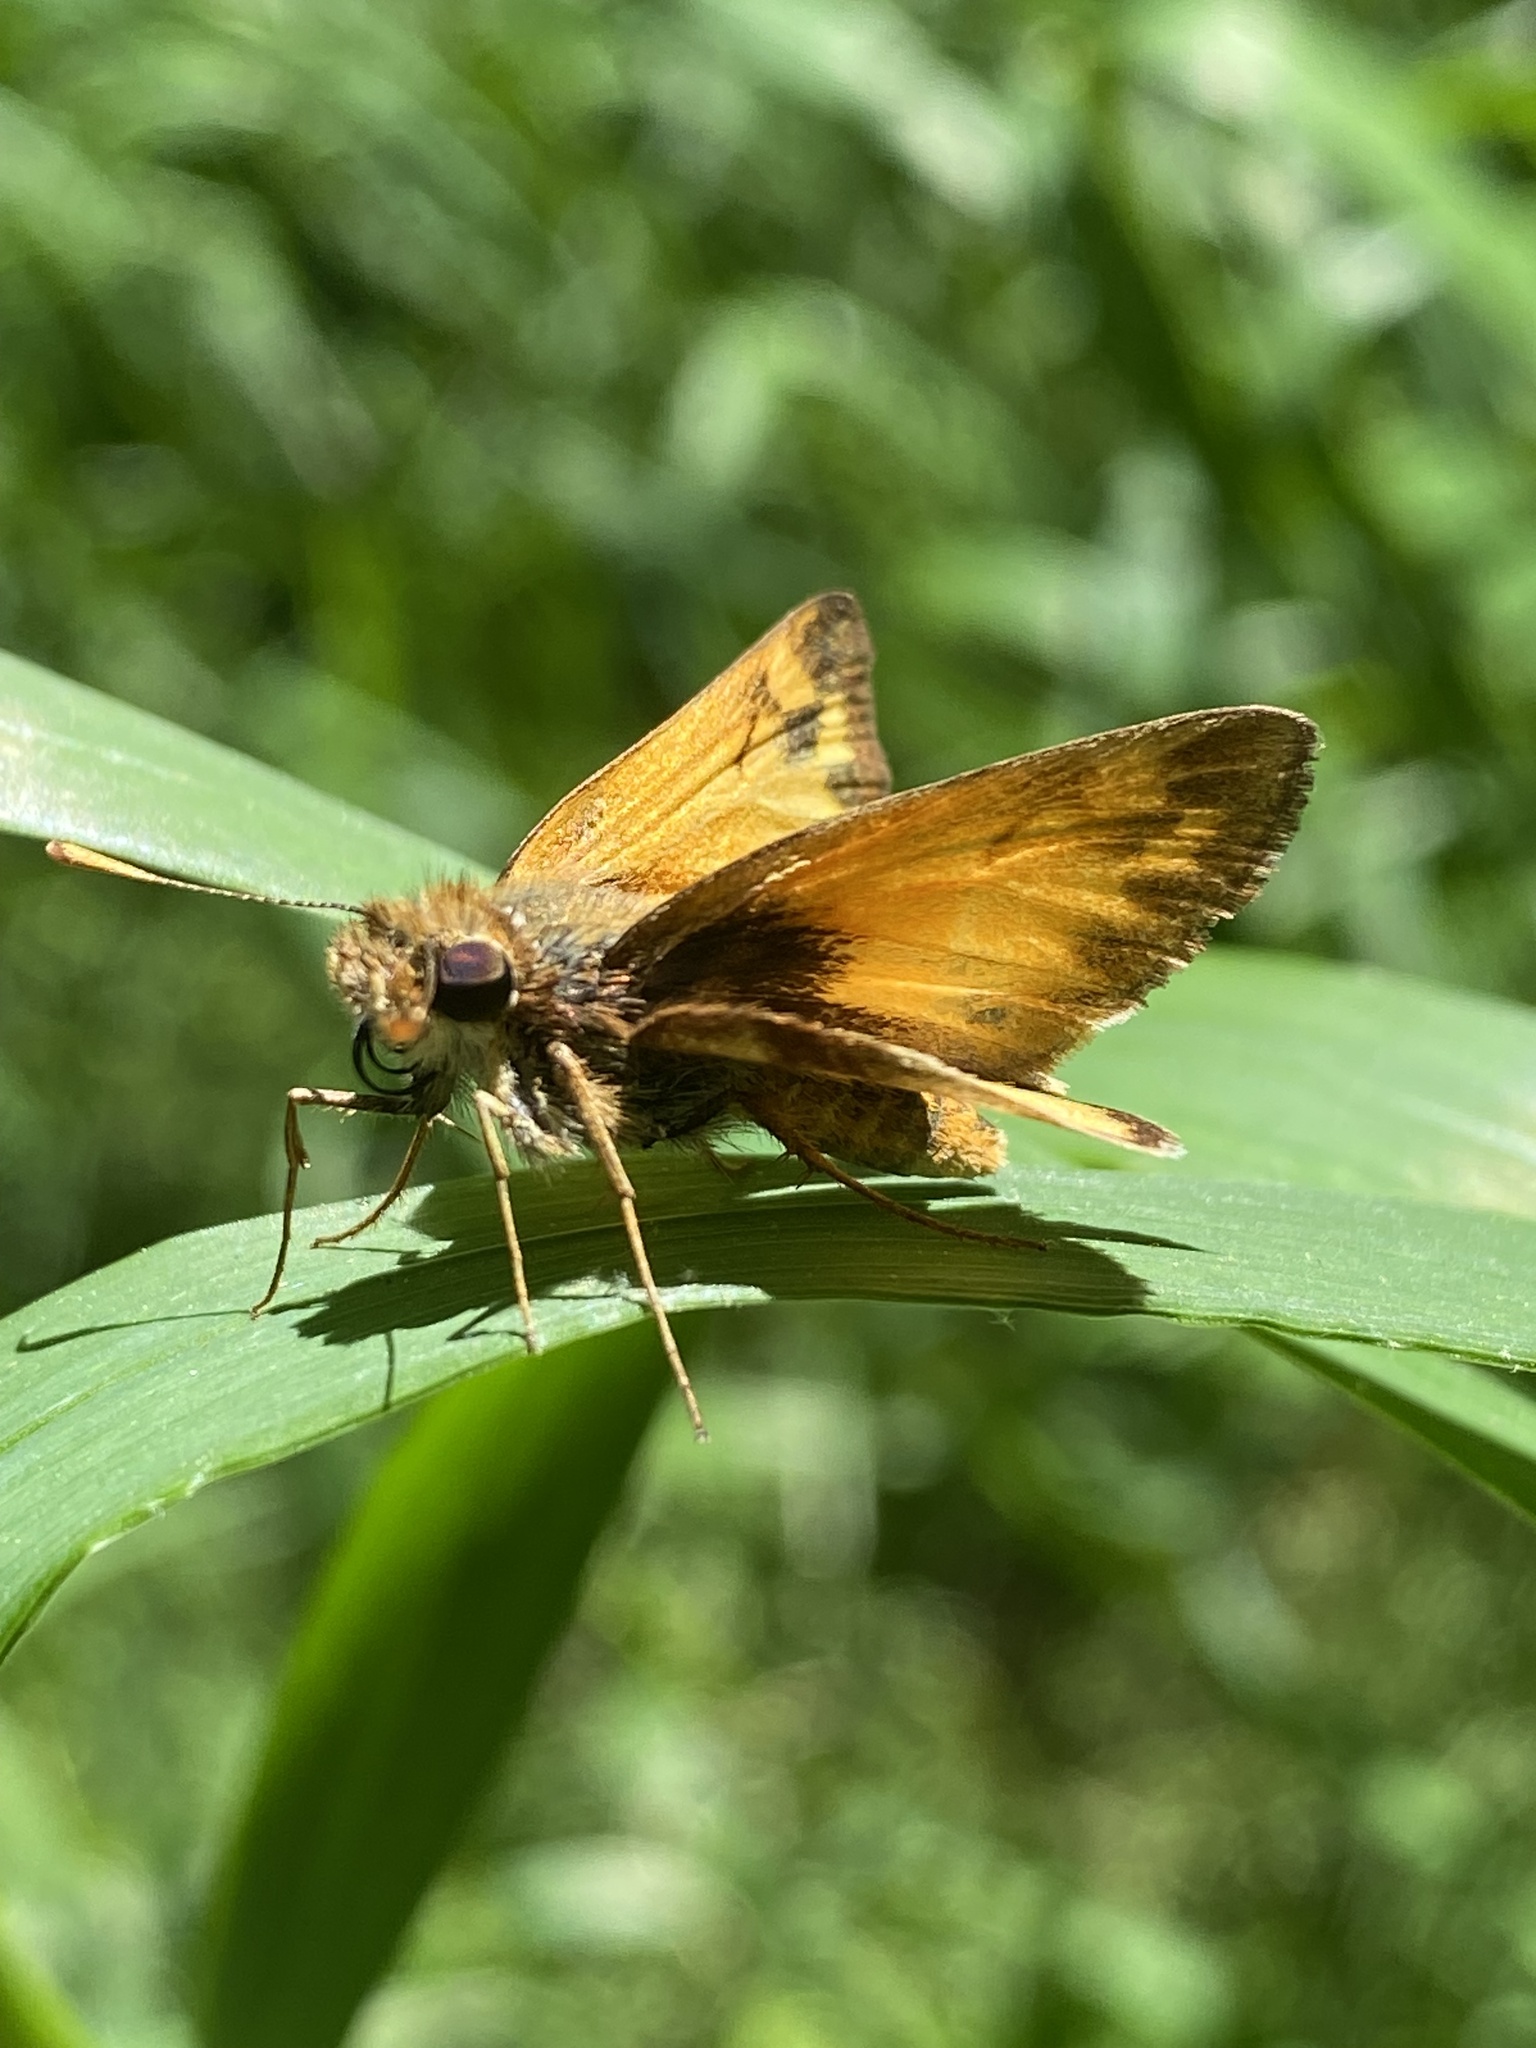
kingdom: Animalia
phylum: Arthropoda
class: Insecta
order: Lepidoptera
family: Hesperiidae
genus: Lon
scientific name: Lon zabulon
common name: Zabulon skipper
